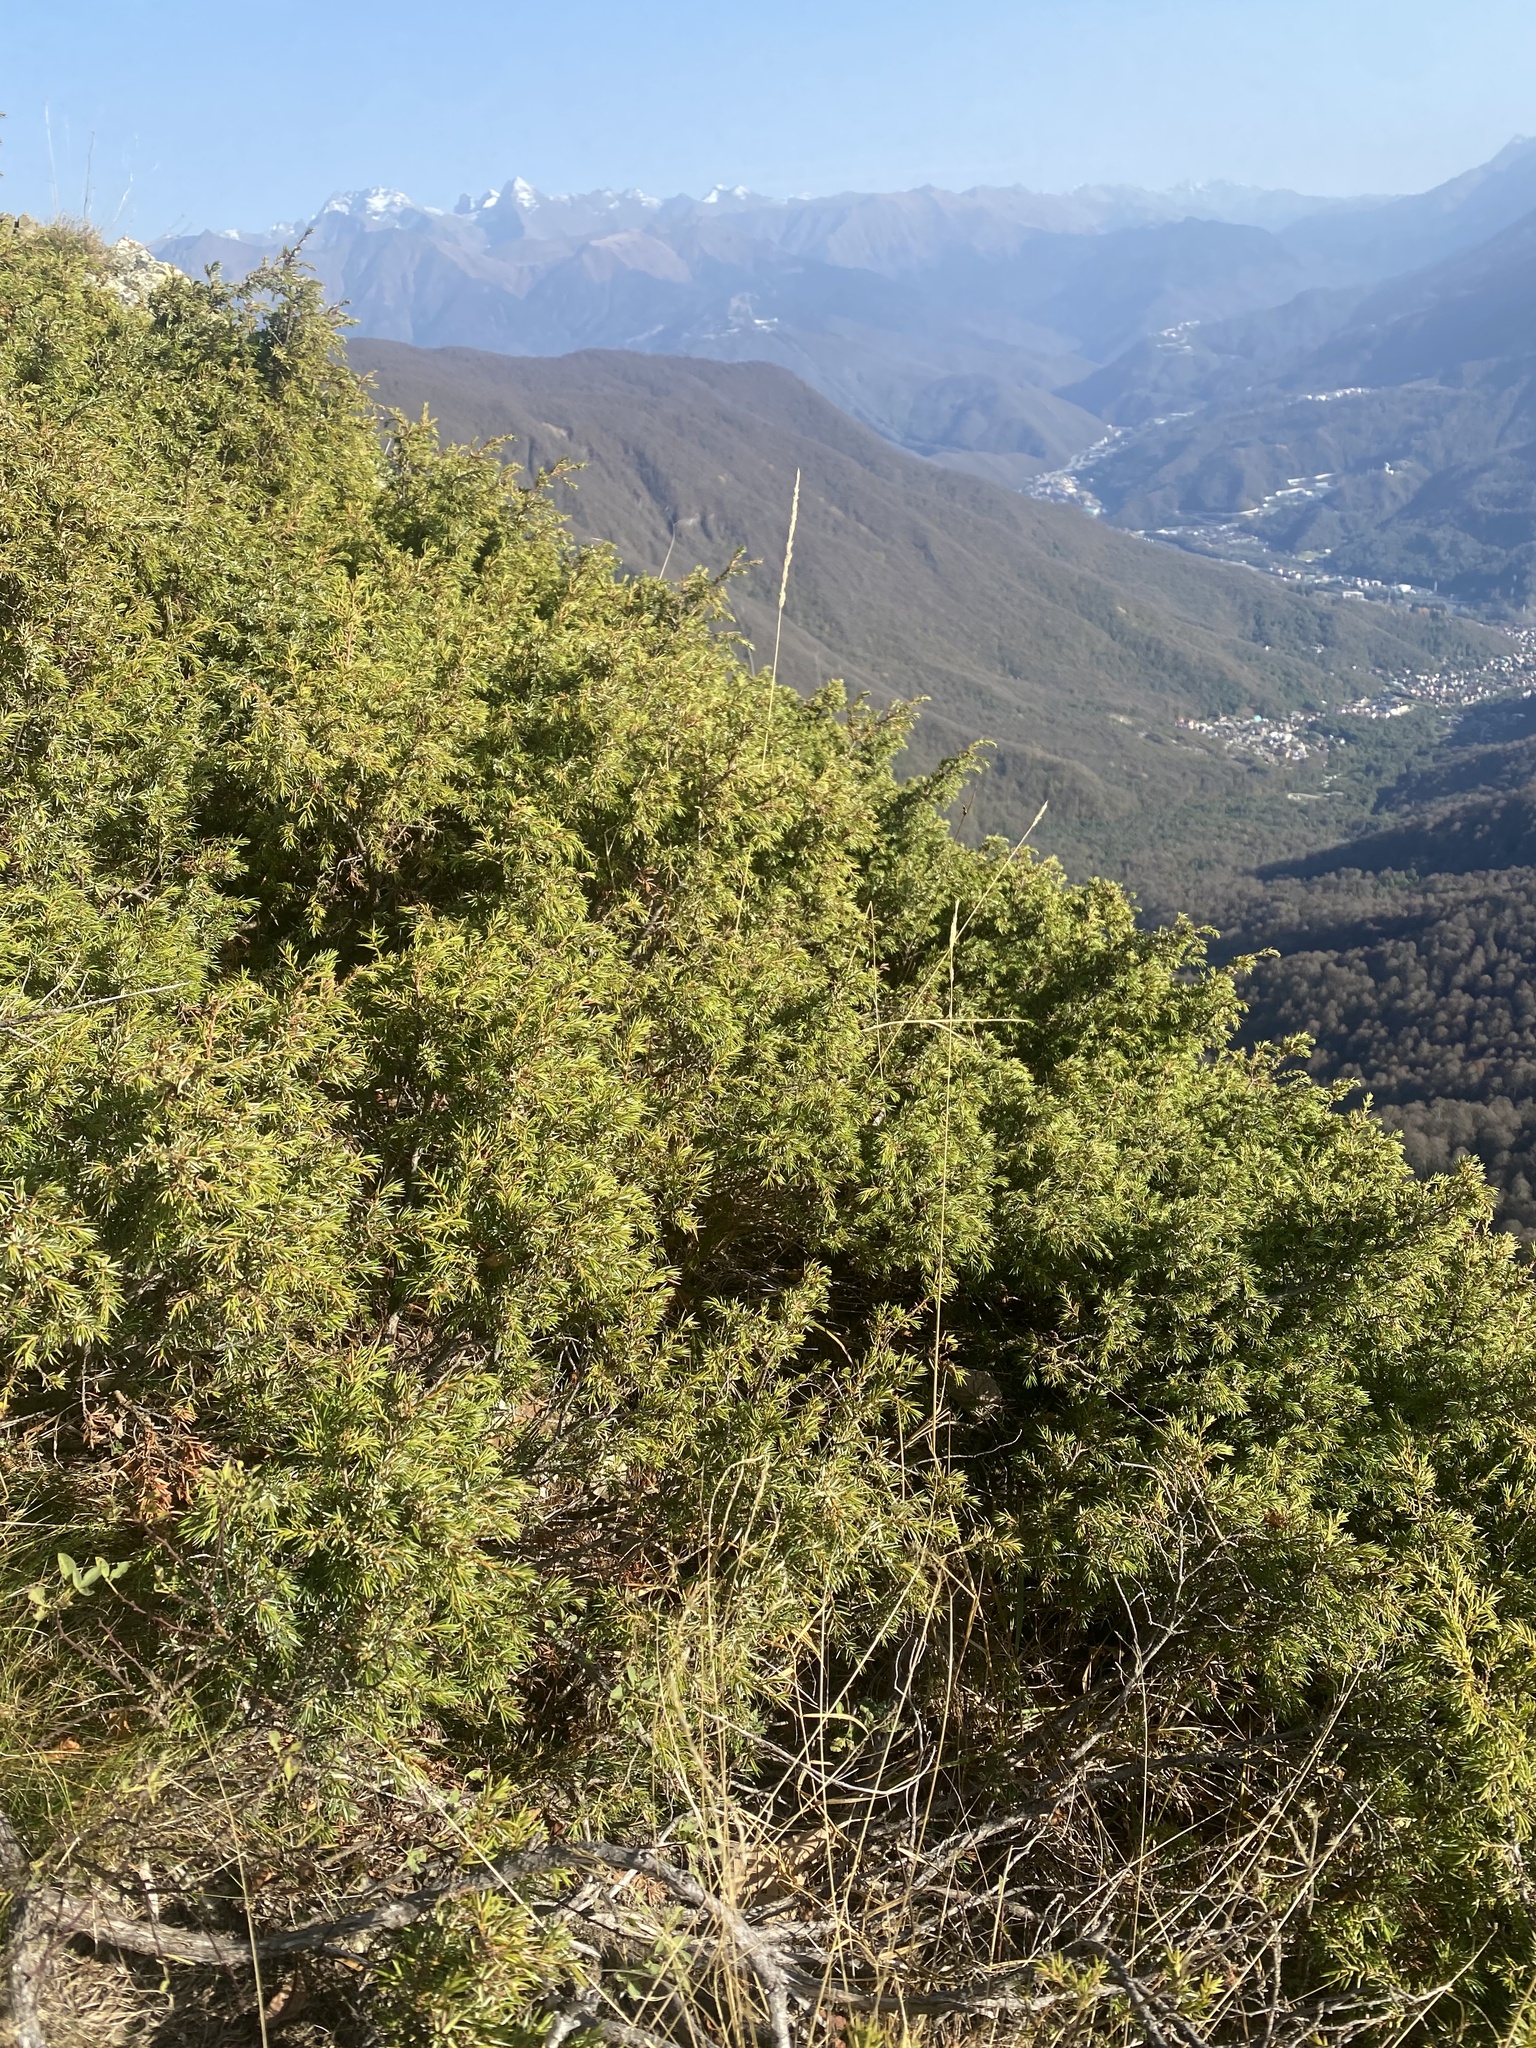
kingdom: Plantae
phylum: Tracheophyta
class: Pinopsida
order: Pinales
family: Cupressaceae
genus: Juniperus
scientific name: Juniperus communis
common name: Common juniper
